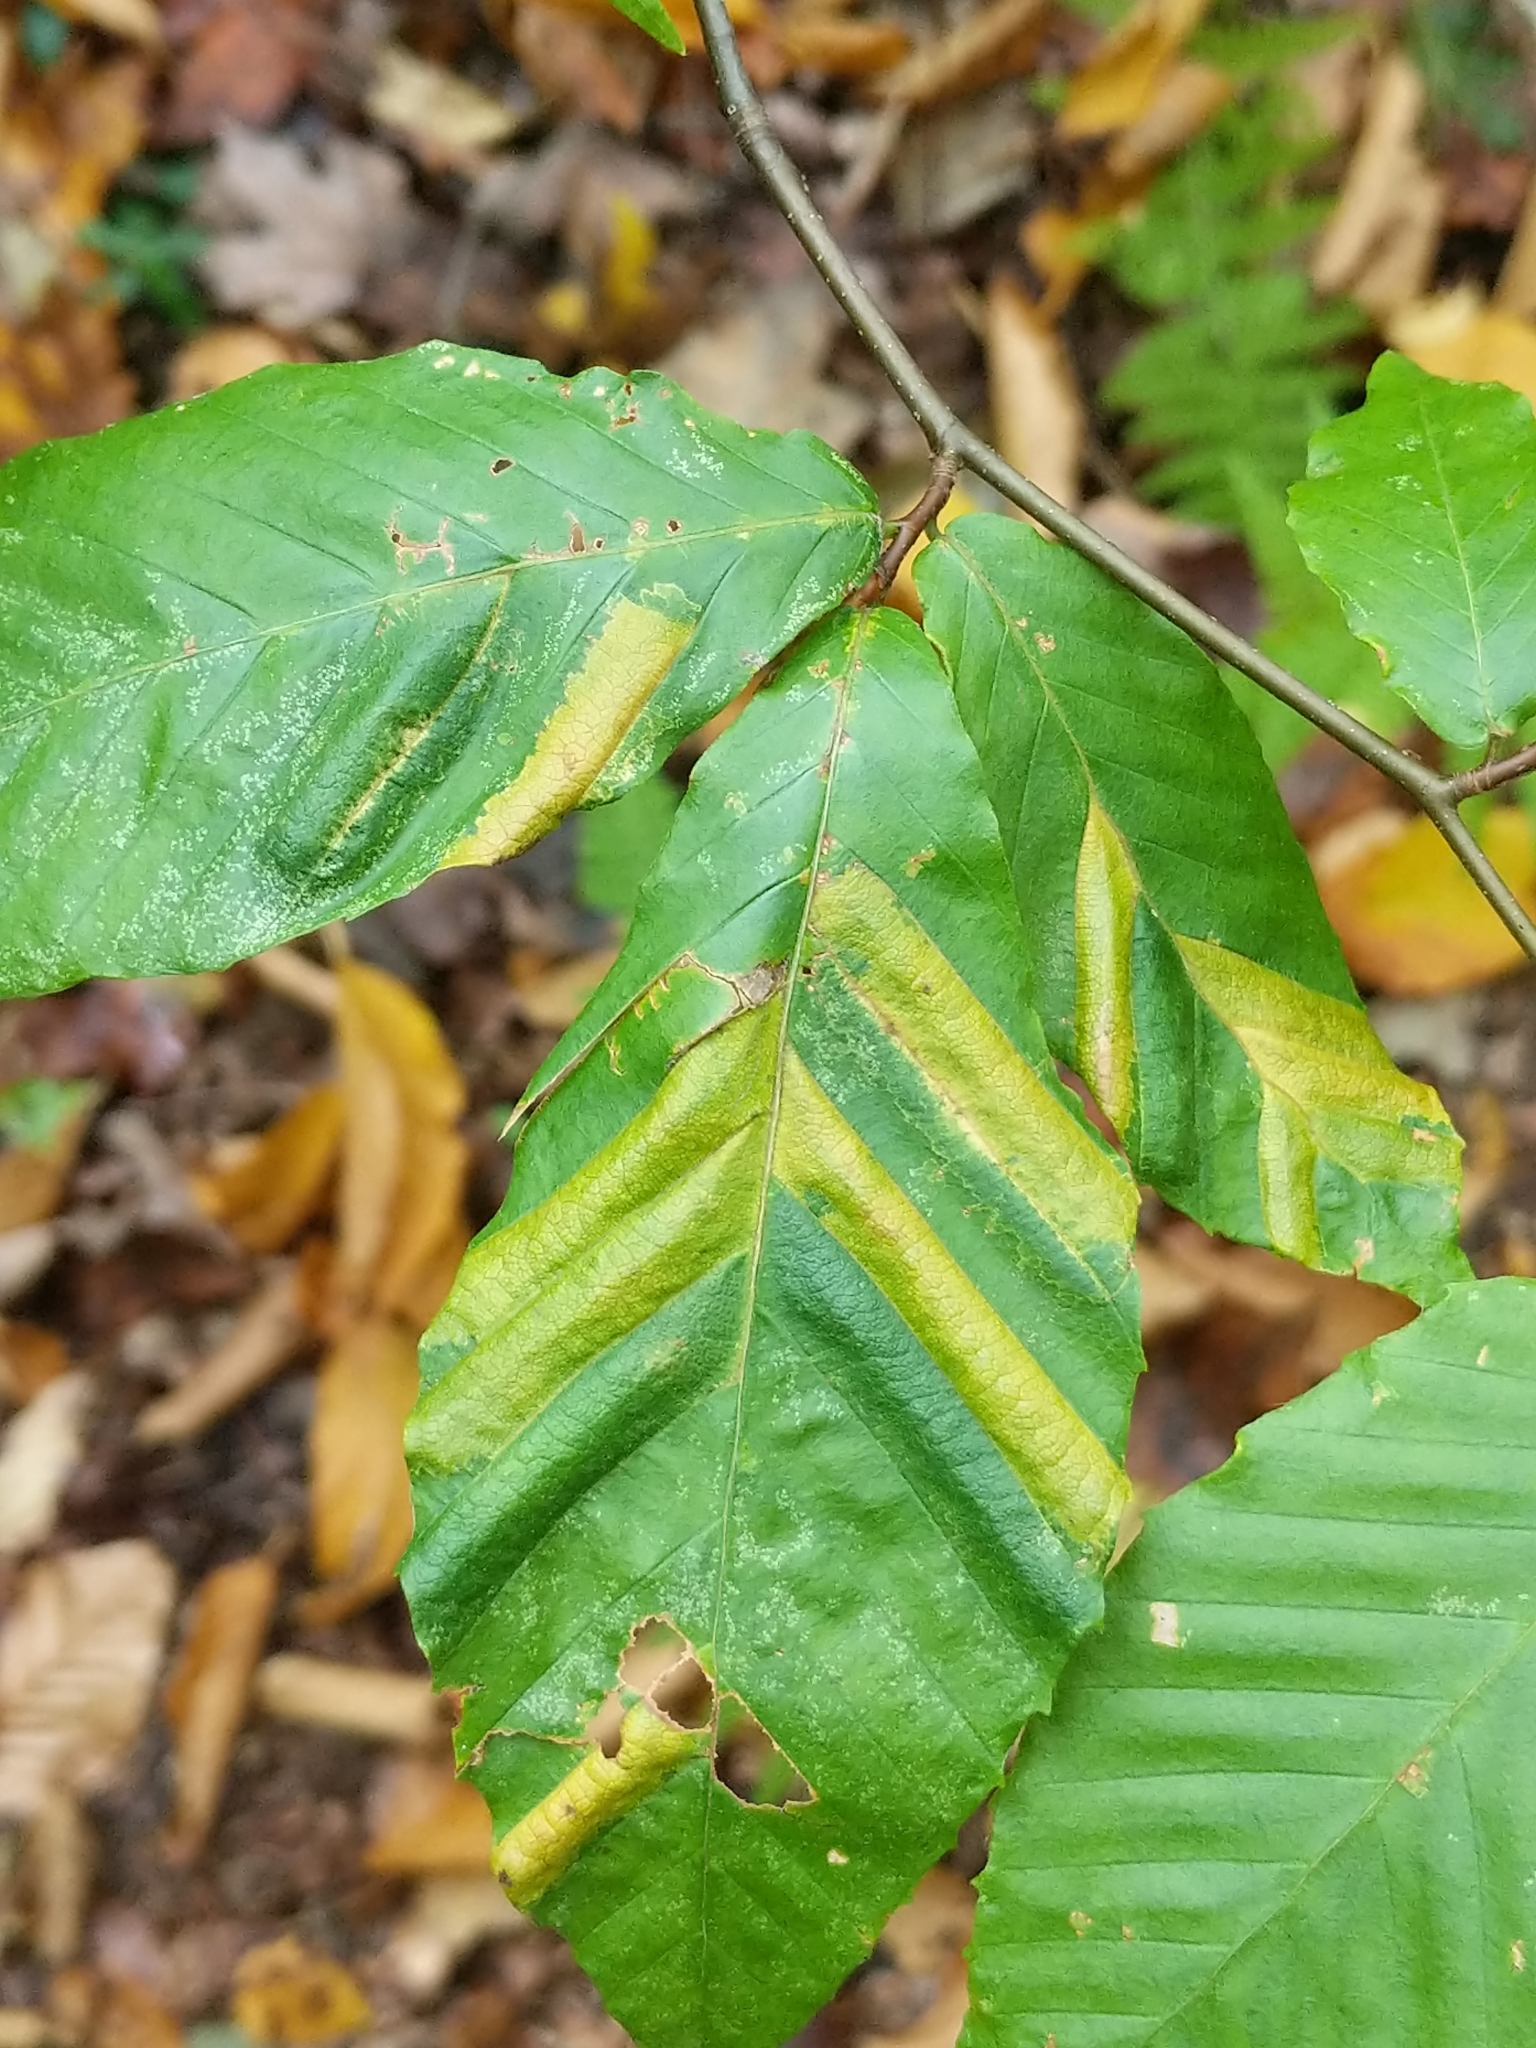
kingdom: Animalia
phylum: Nematoda
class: Chromadorea
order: Rhabditida
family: Anguinidae
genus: Litylenchus
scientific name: Litylenchus crenatae
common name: Beech leaf disease
